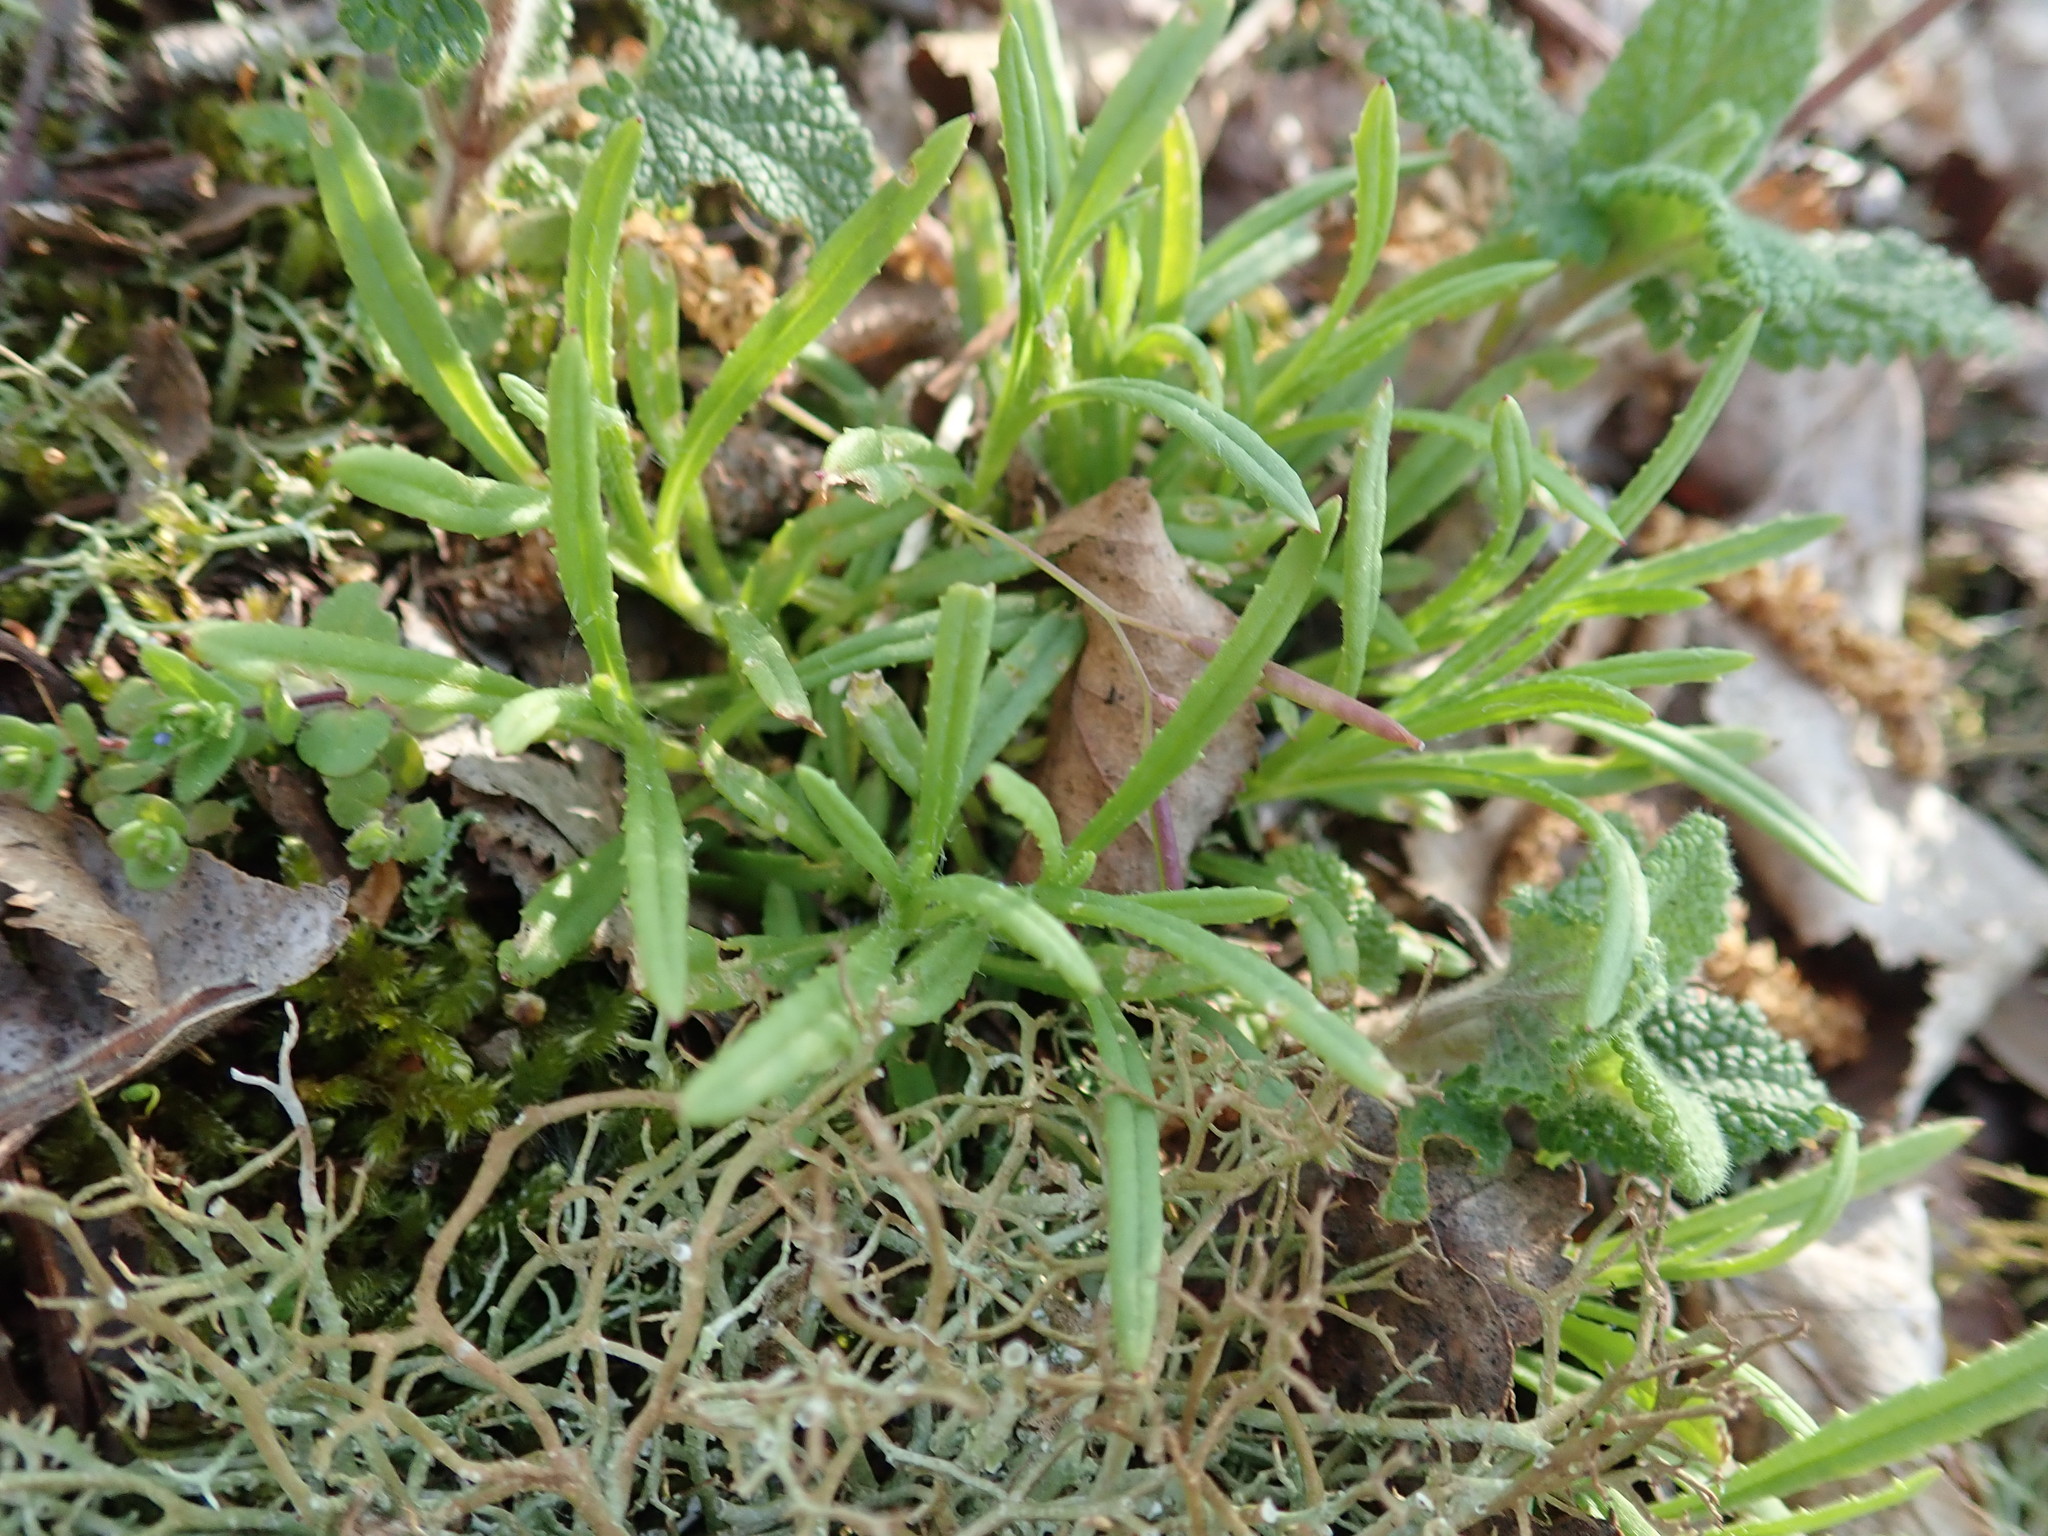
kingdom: Plantae
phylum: Tracheophyta
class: Magnoliopsida
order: Asterales
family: Asteraceae
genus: Senecio
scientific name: Senecio inaequidens
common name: Narrow-leaved ragwort
